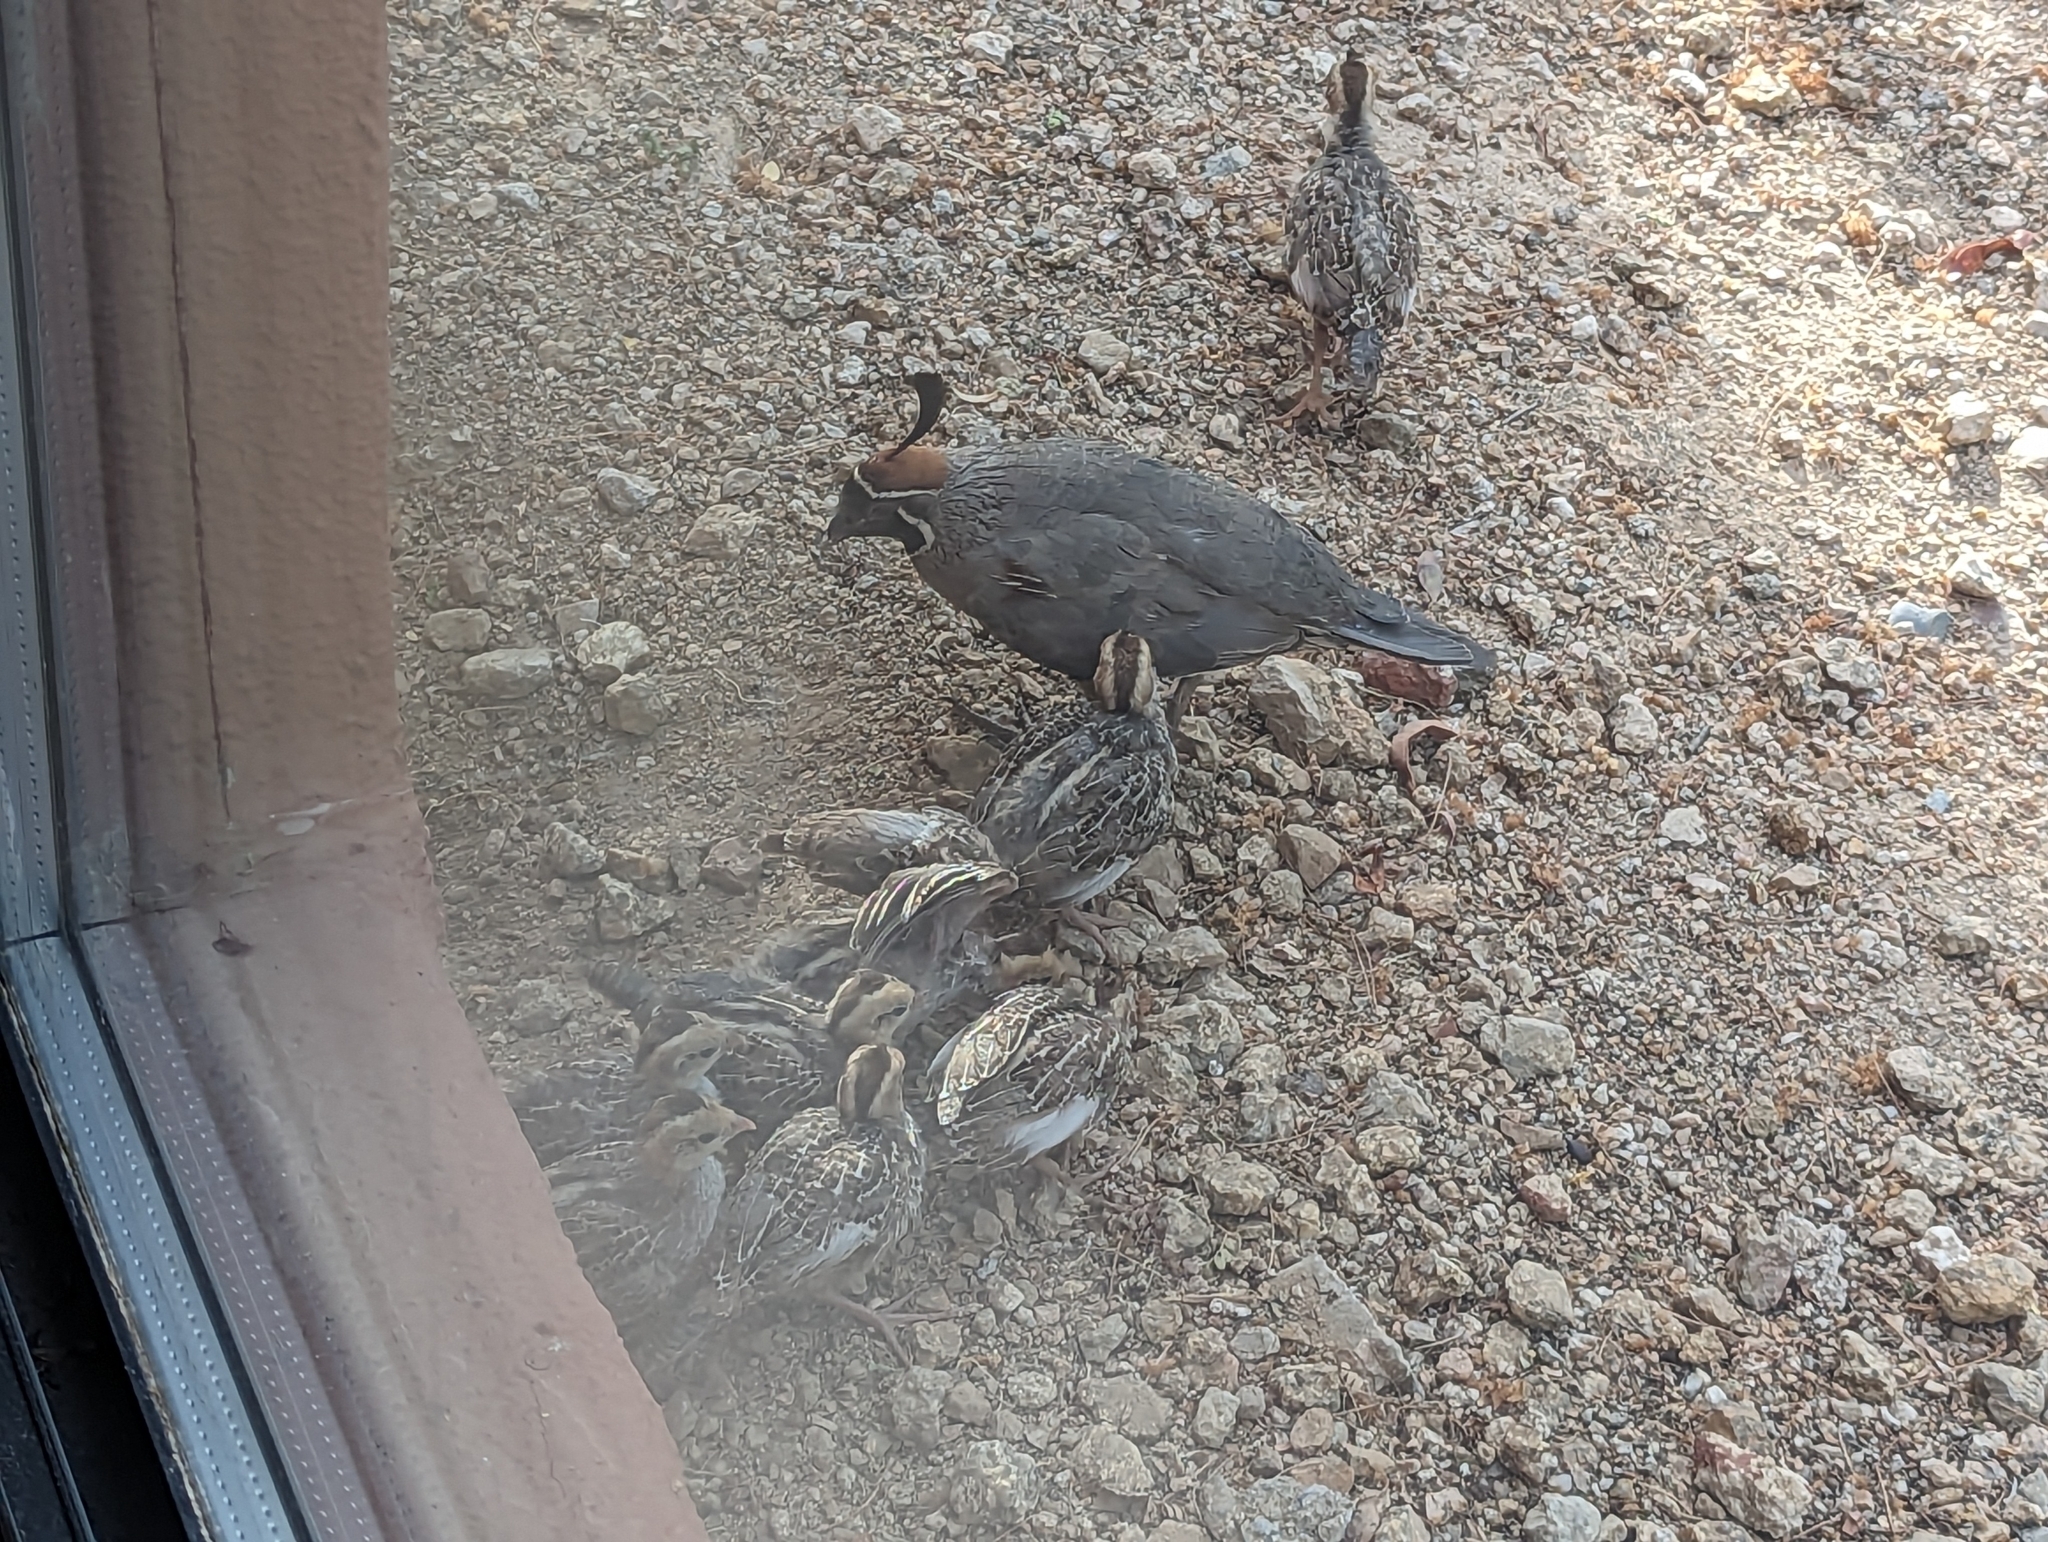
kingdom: Animalia
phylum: Chordata
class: Aves
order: Galliformes
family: Odontophoridae
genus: Callipepla
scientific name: Callipepla gambelii
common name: Gambel's quail
